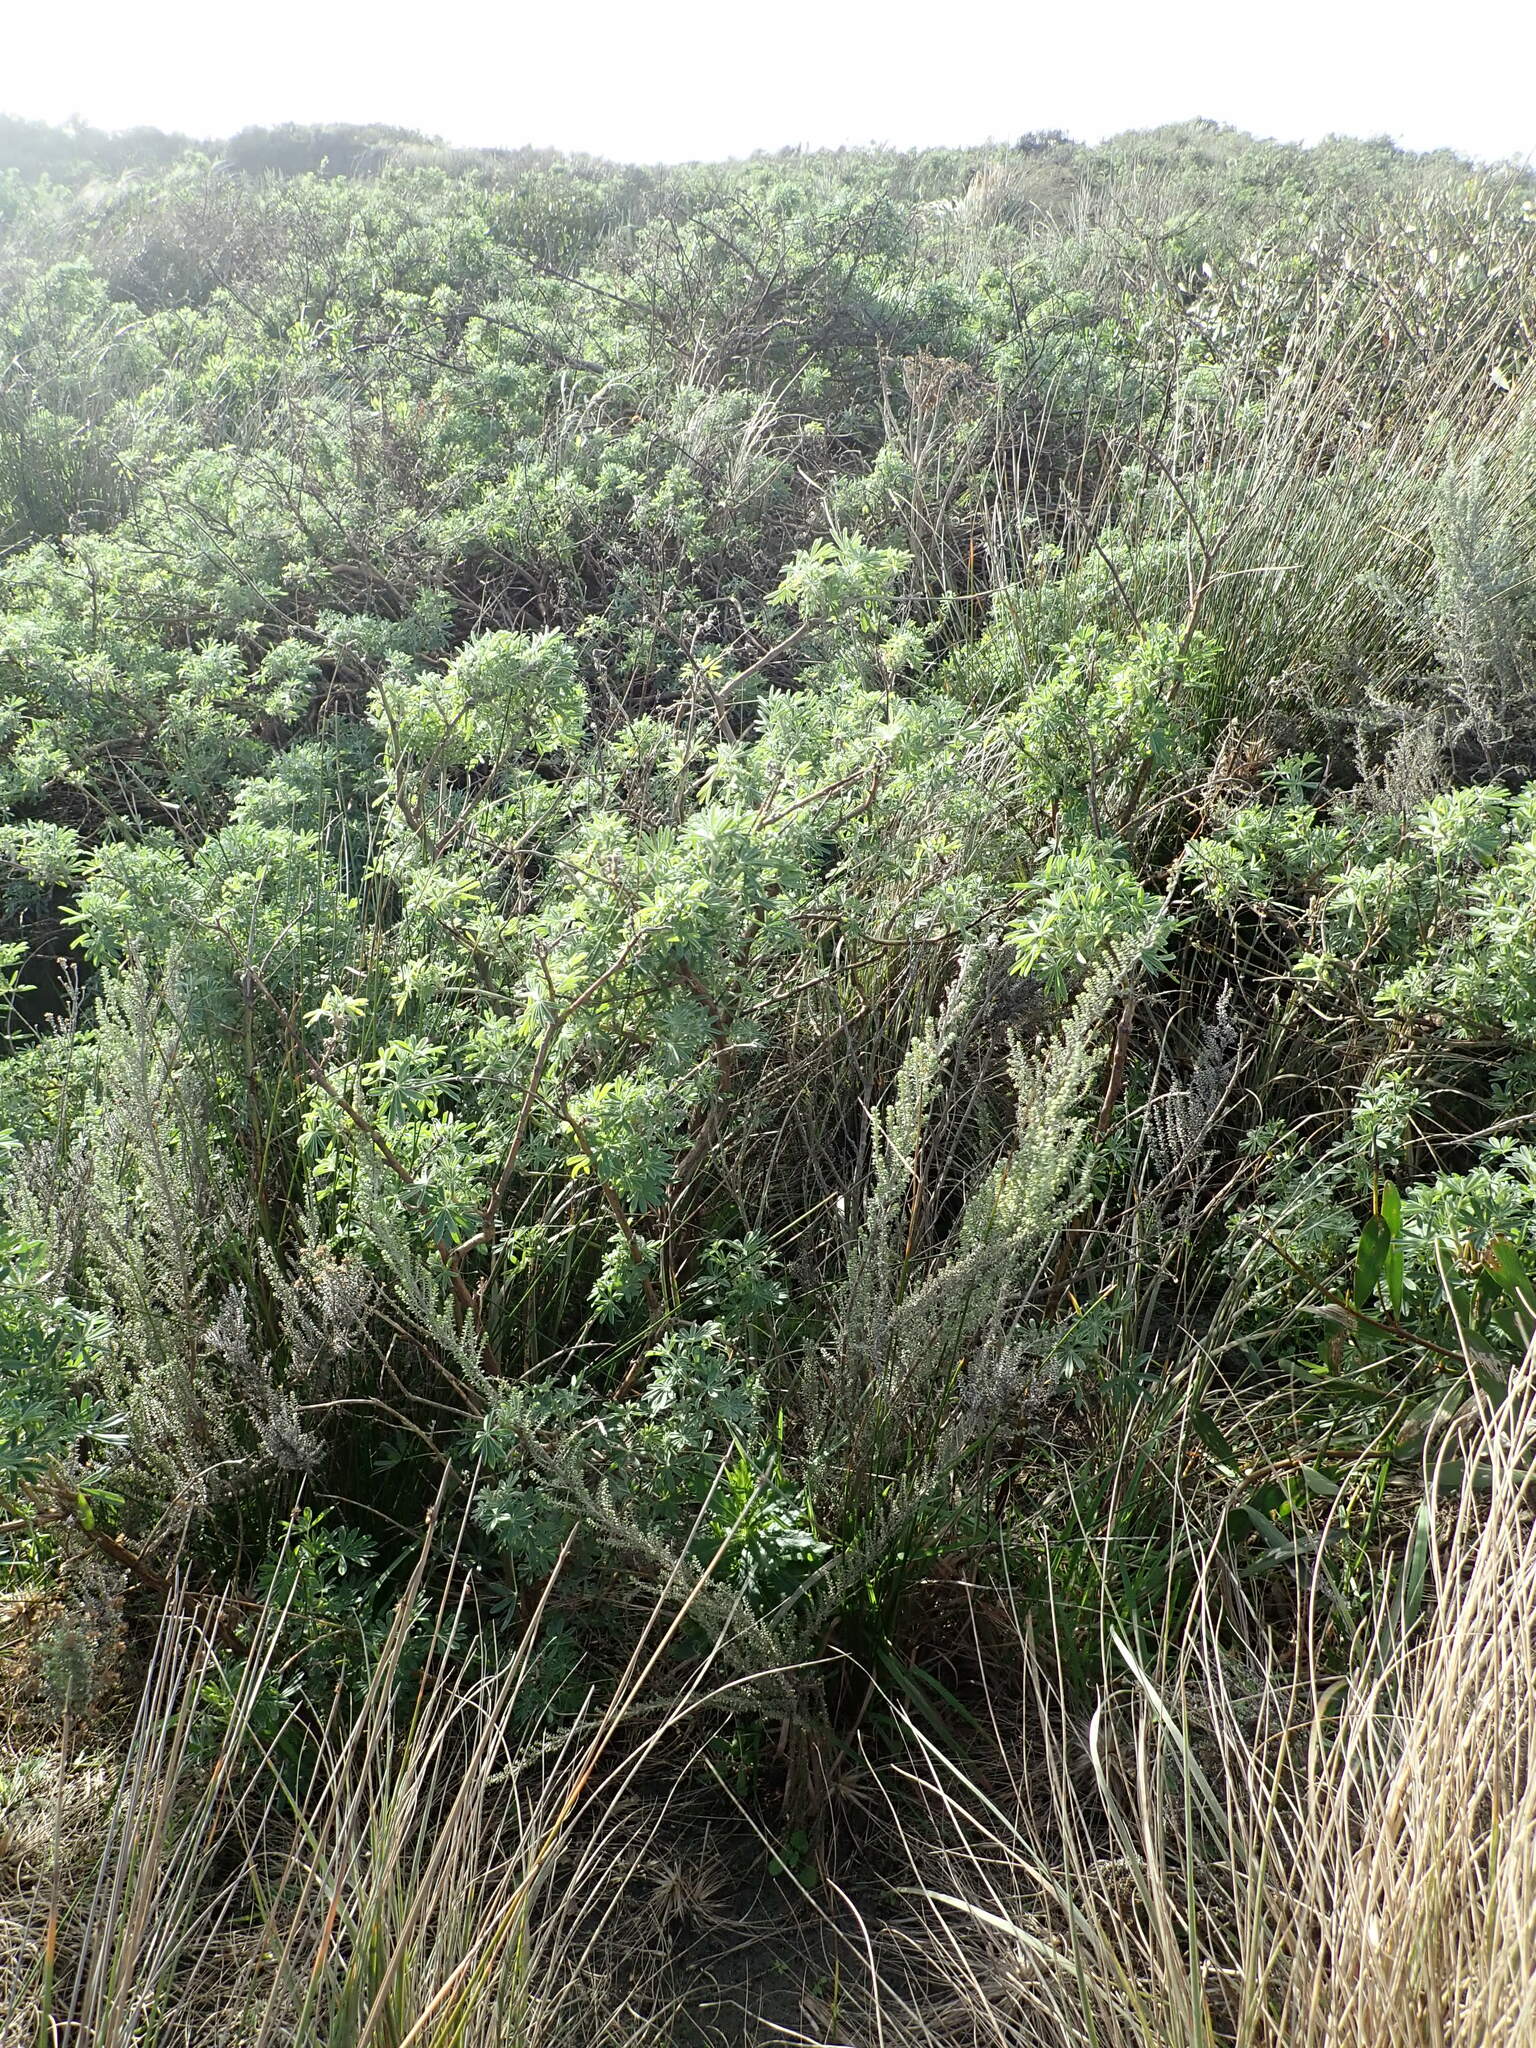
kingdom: Plantae
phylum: Tracheophyta
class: Magnoliopsida
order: Fabales
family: Fabaceae
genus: Lupinus
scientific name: Lupinus arboreus
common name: Yellow bush lupine
